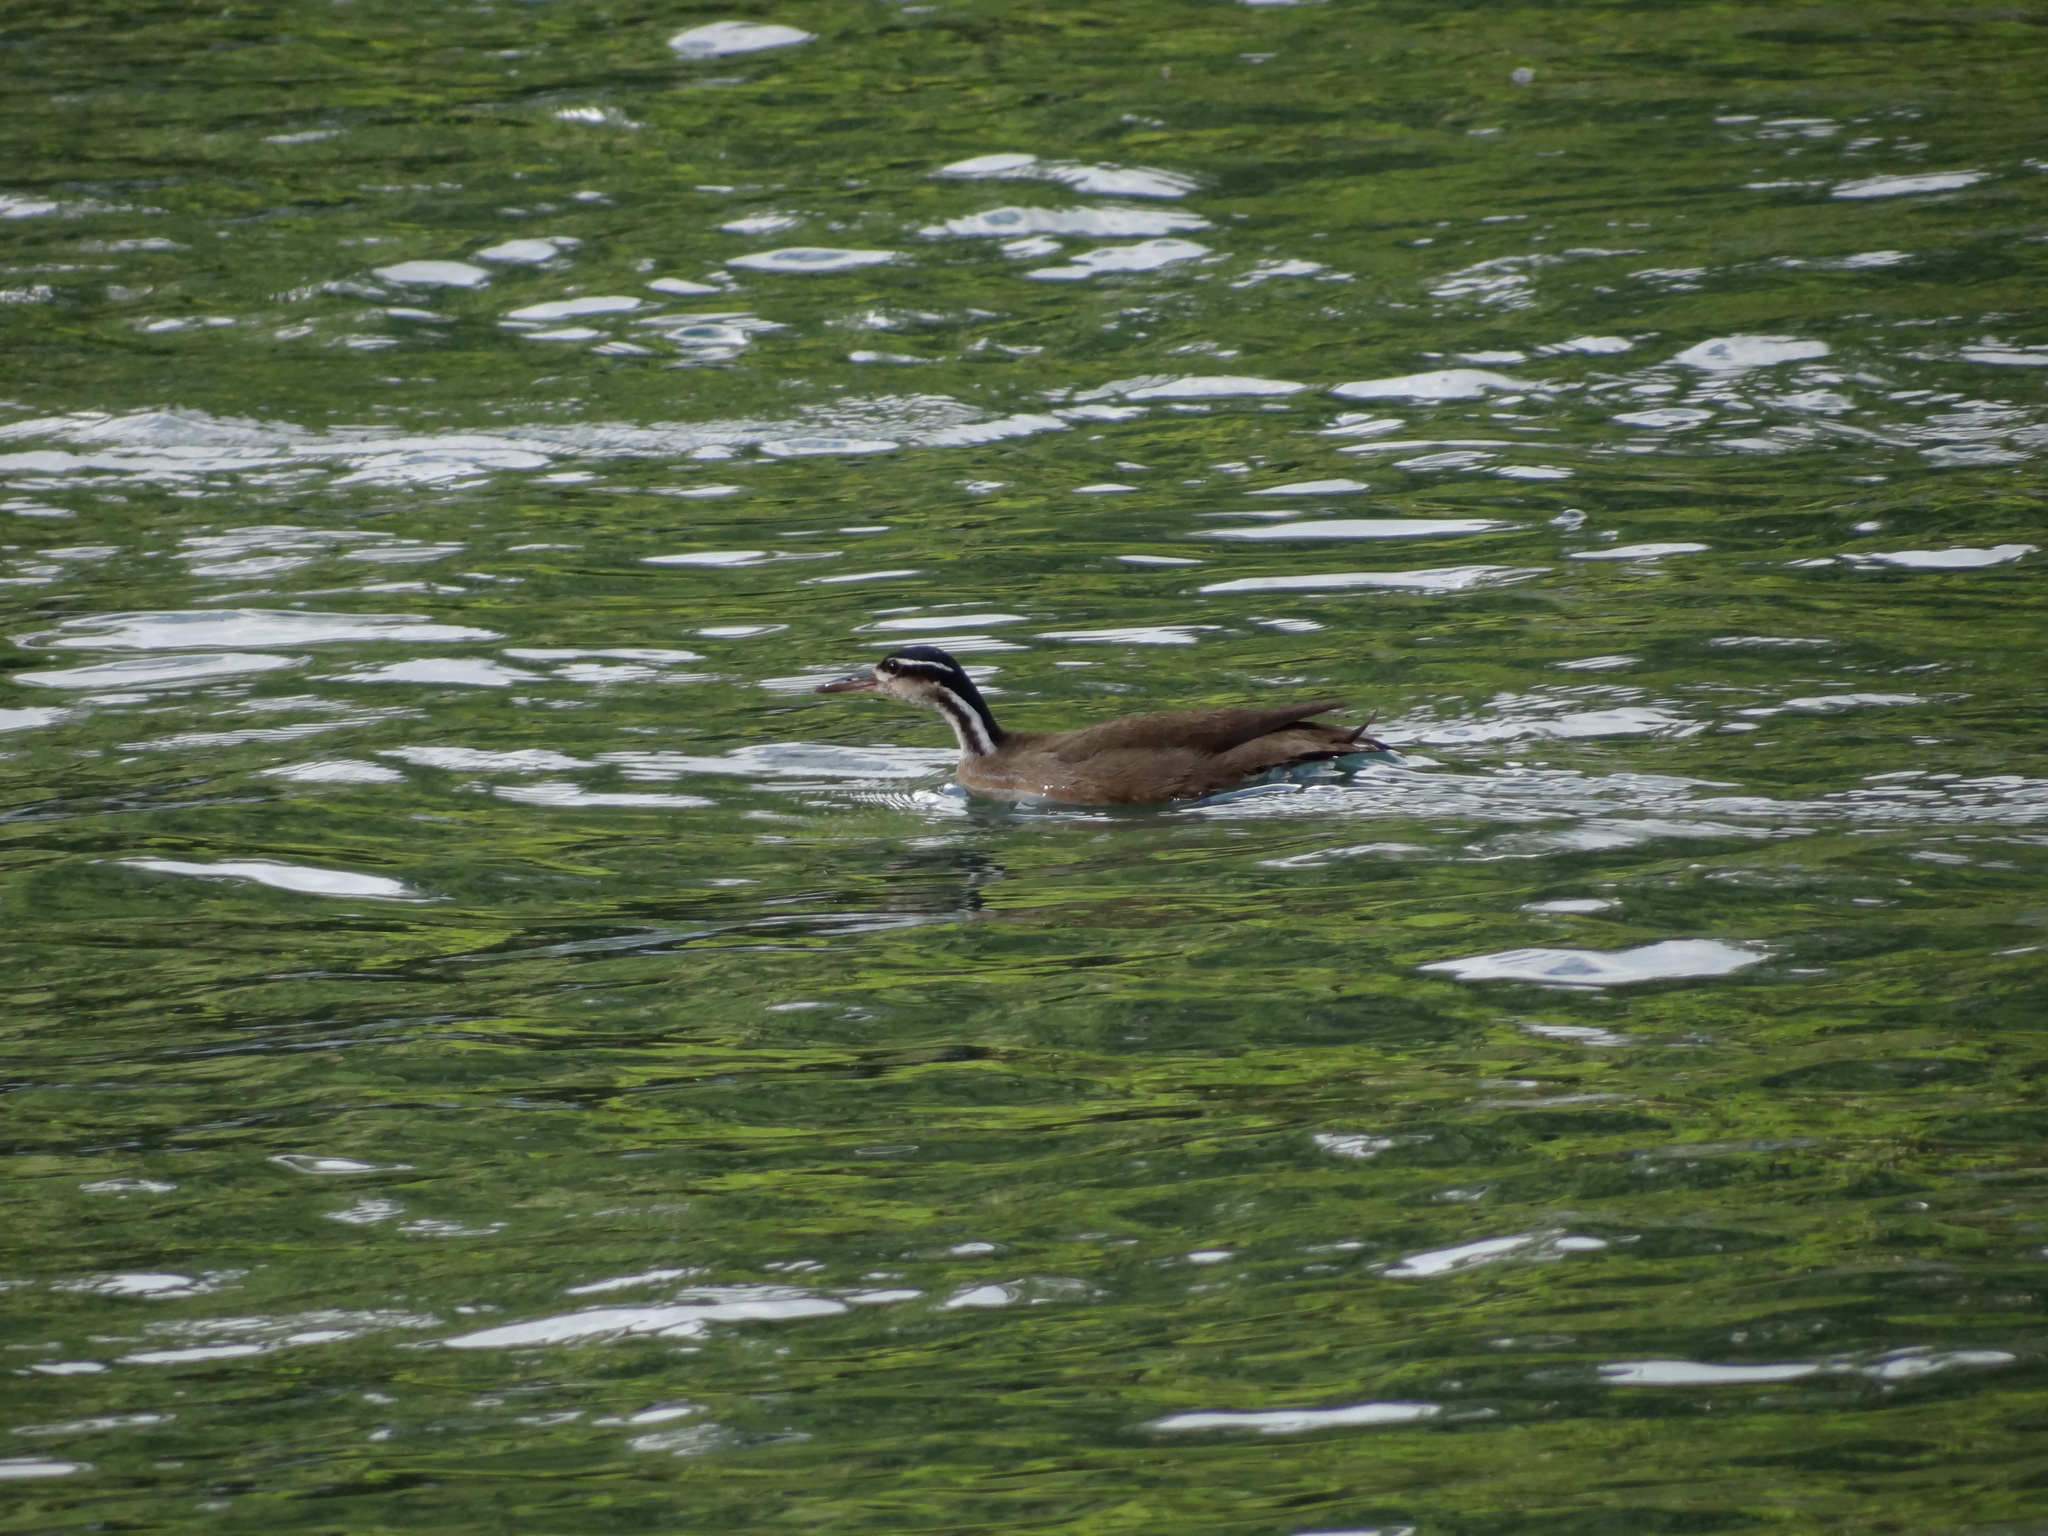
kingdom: Animalia
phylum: Chordata
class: Aves
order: Gruiformes
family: Heliornithidae
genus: Heliornis
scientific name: Heliornis fulica
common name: Sungrebe
